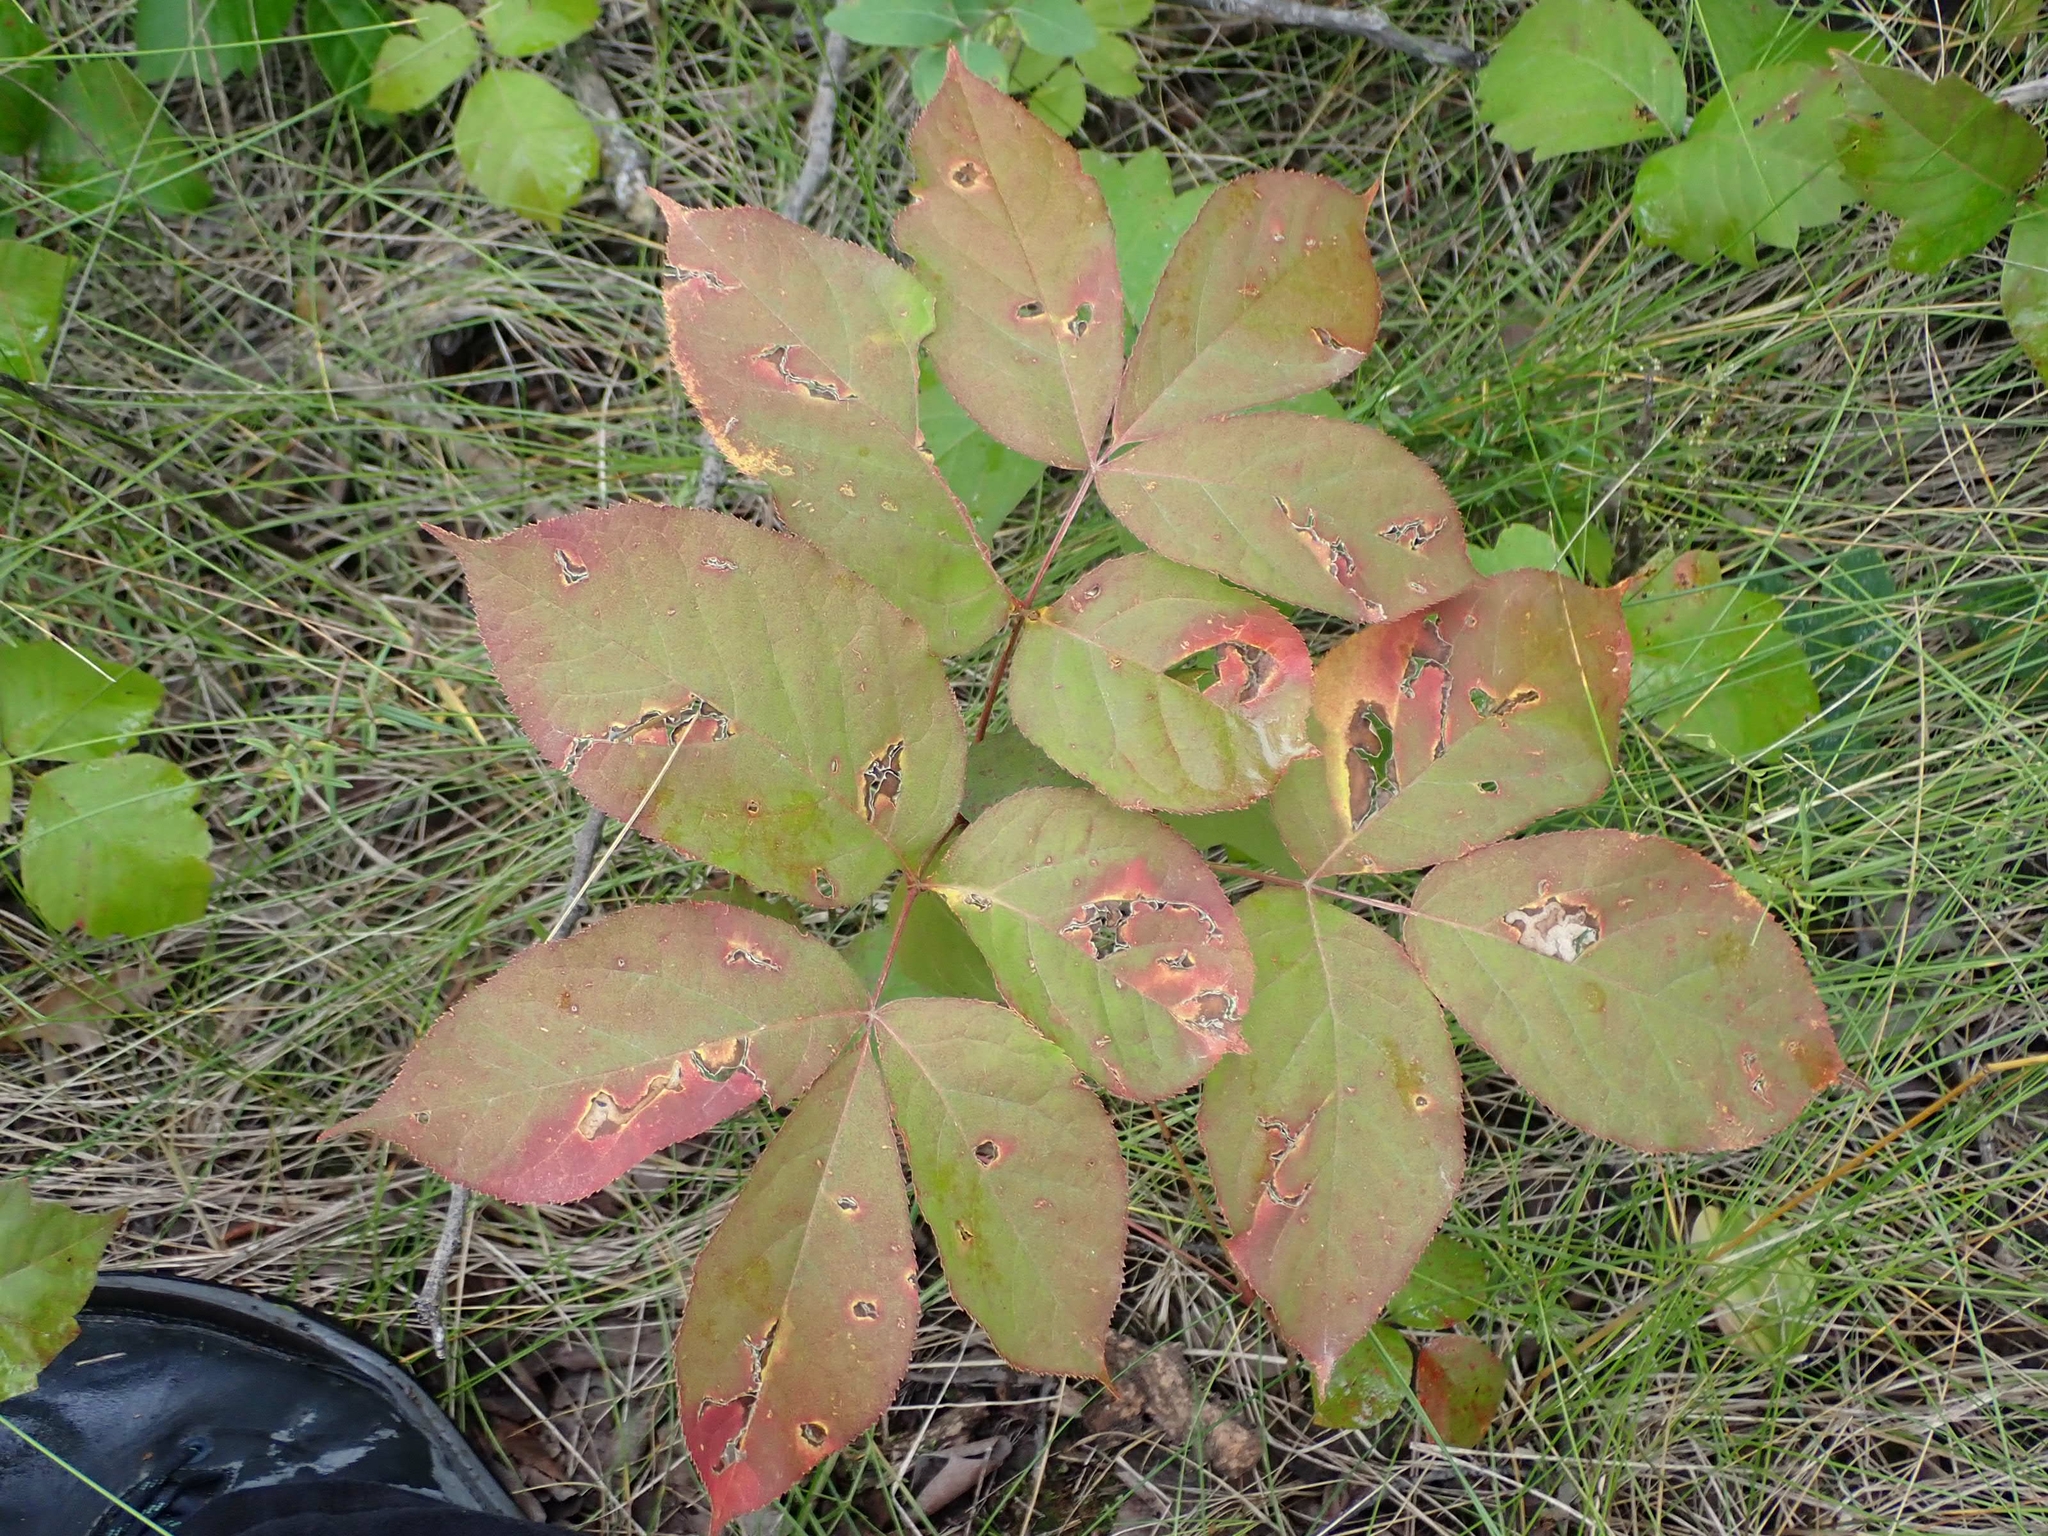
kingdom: Plantae
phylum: Tracheophyta
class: Magnoliopsida
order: Apiales
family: Araliaceae
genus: Aralia
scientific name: Aralia nudicaulis
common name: Wild sarsaparilla
